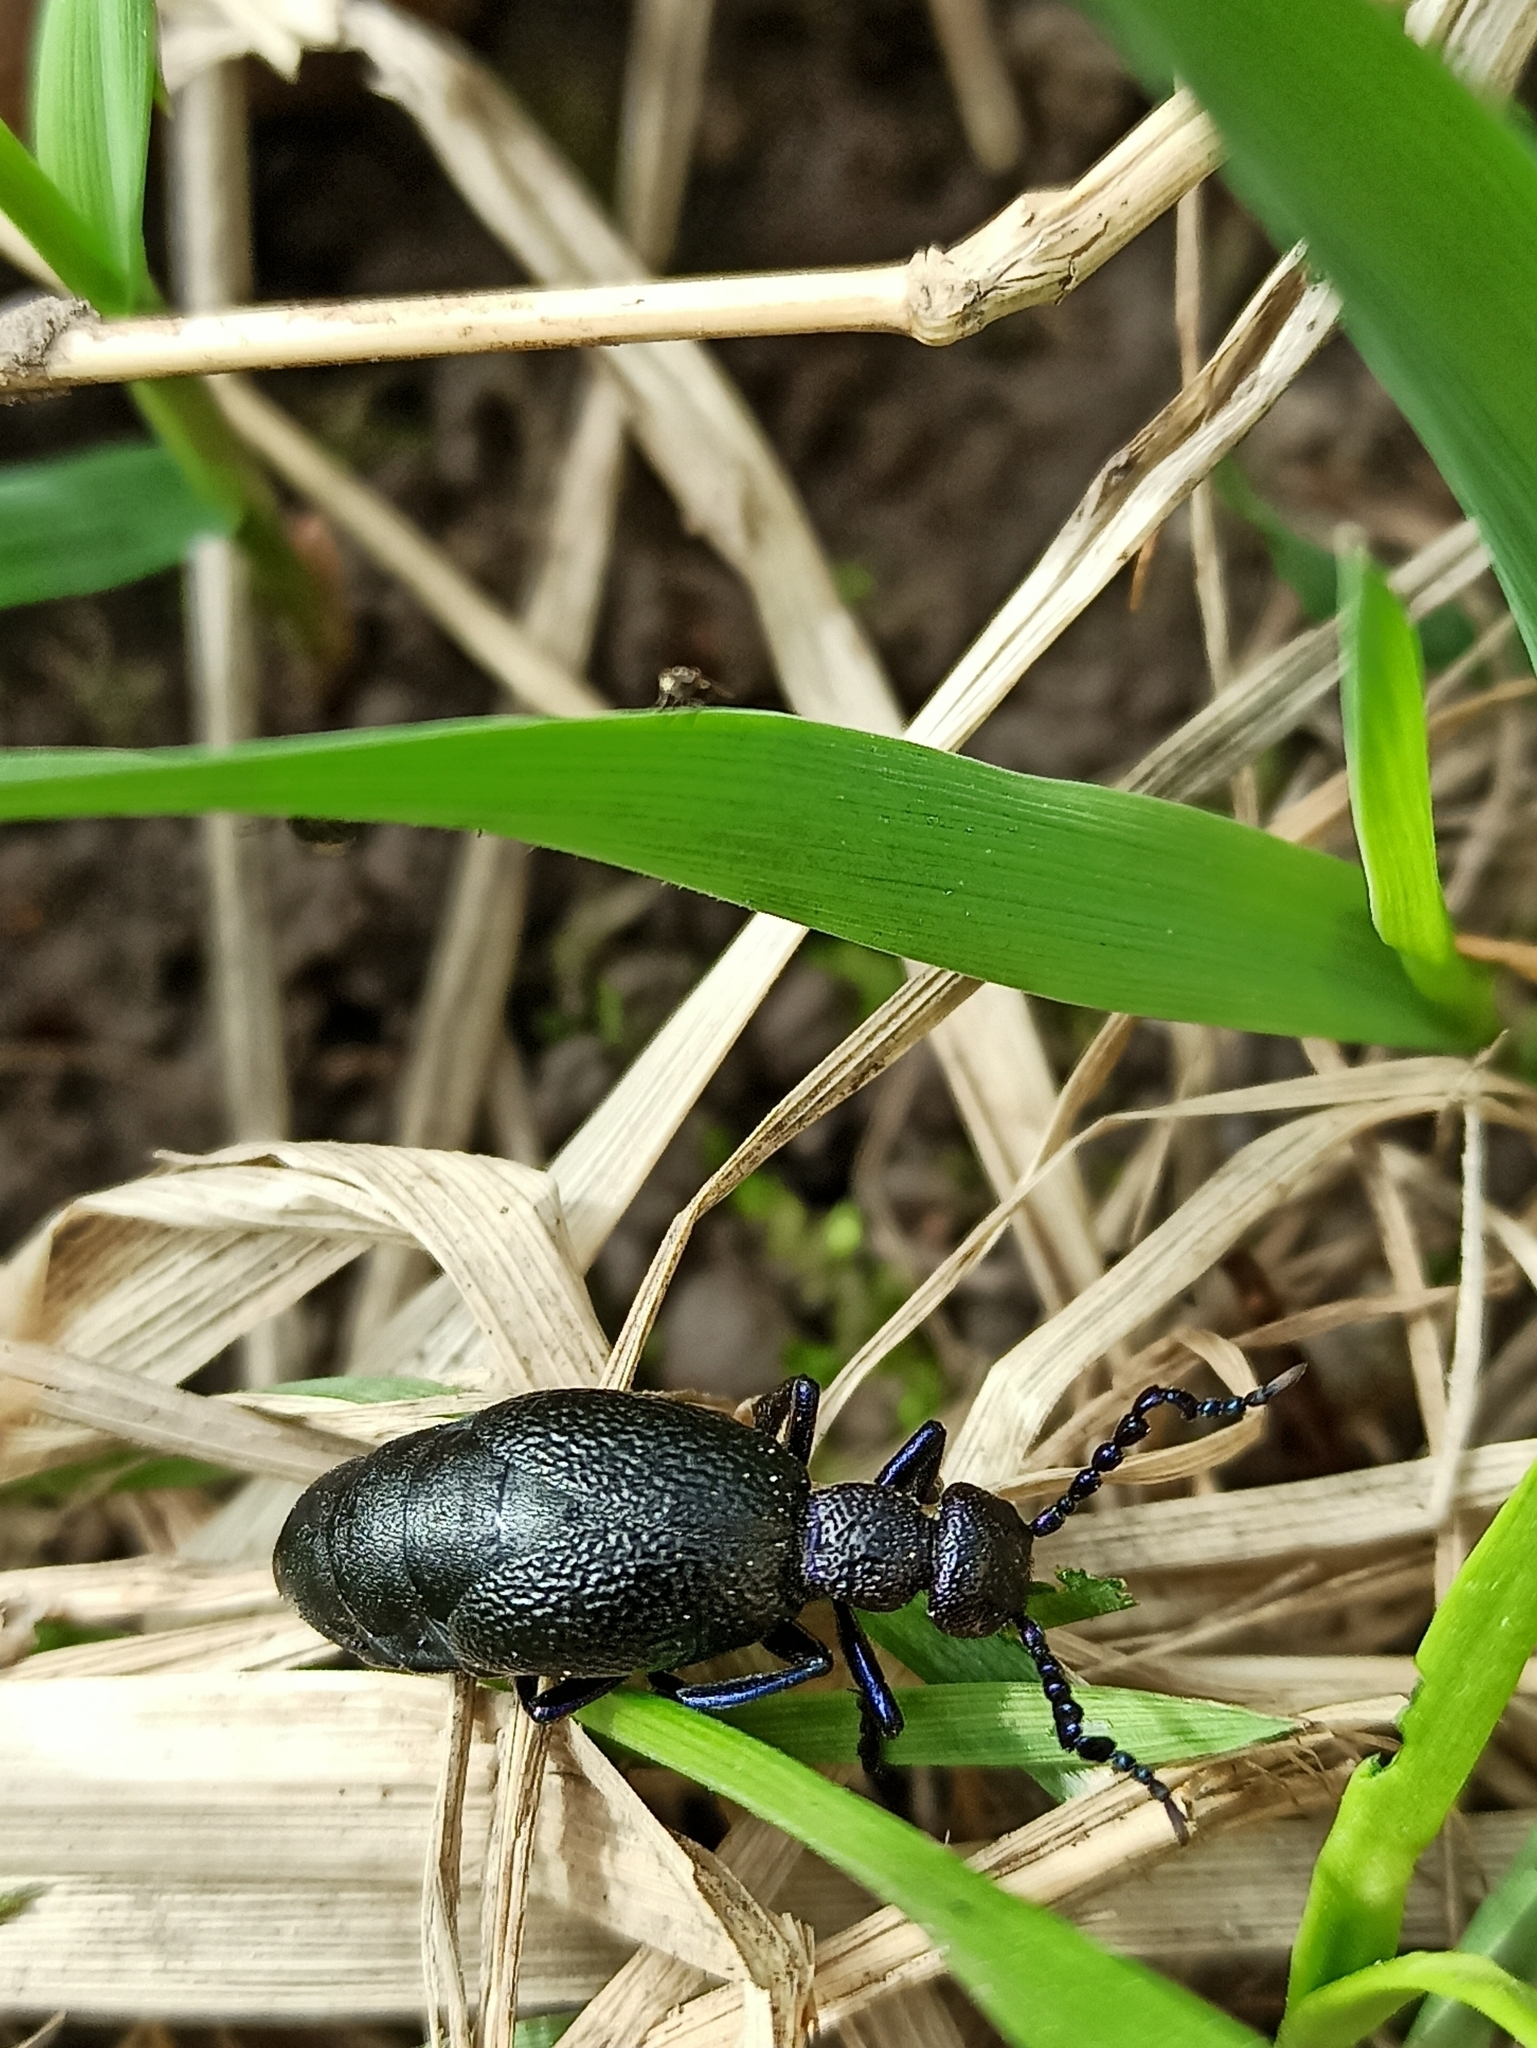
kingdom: Animalia
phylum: Arthropoda
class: Insecta
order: Coleoptera
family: Meloidae
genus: Meloe
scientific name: Meloe proscarabaeus
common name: Black oil-beetle
